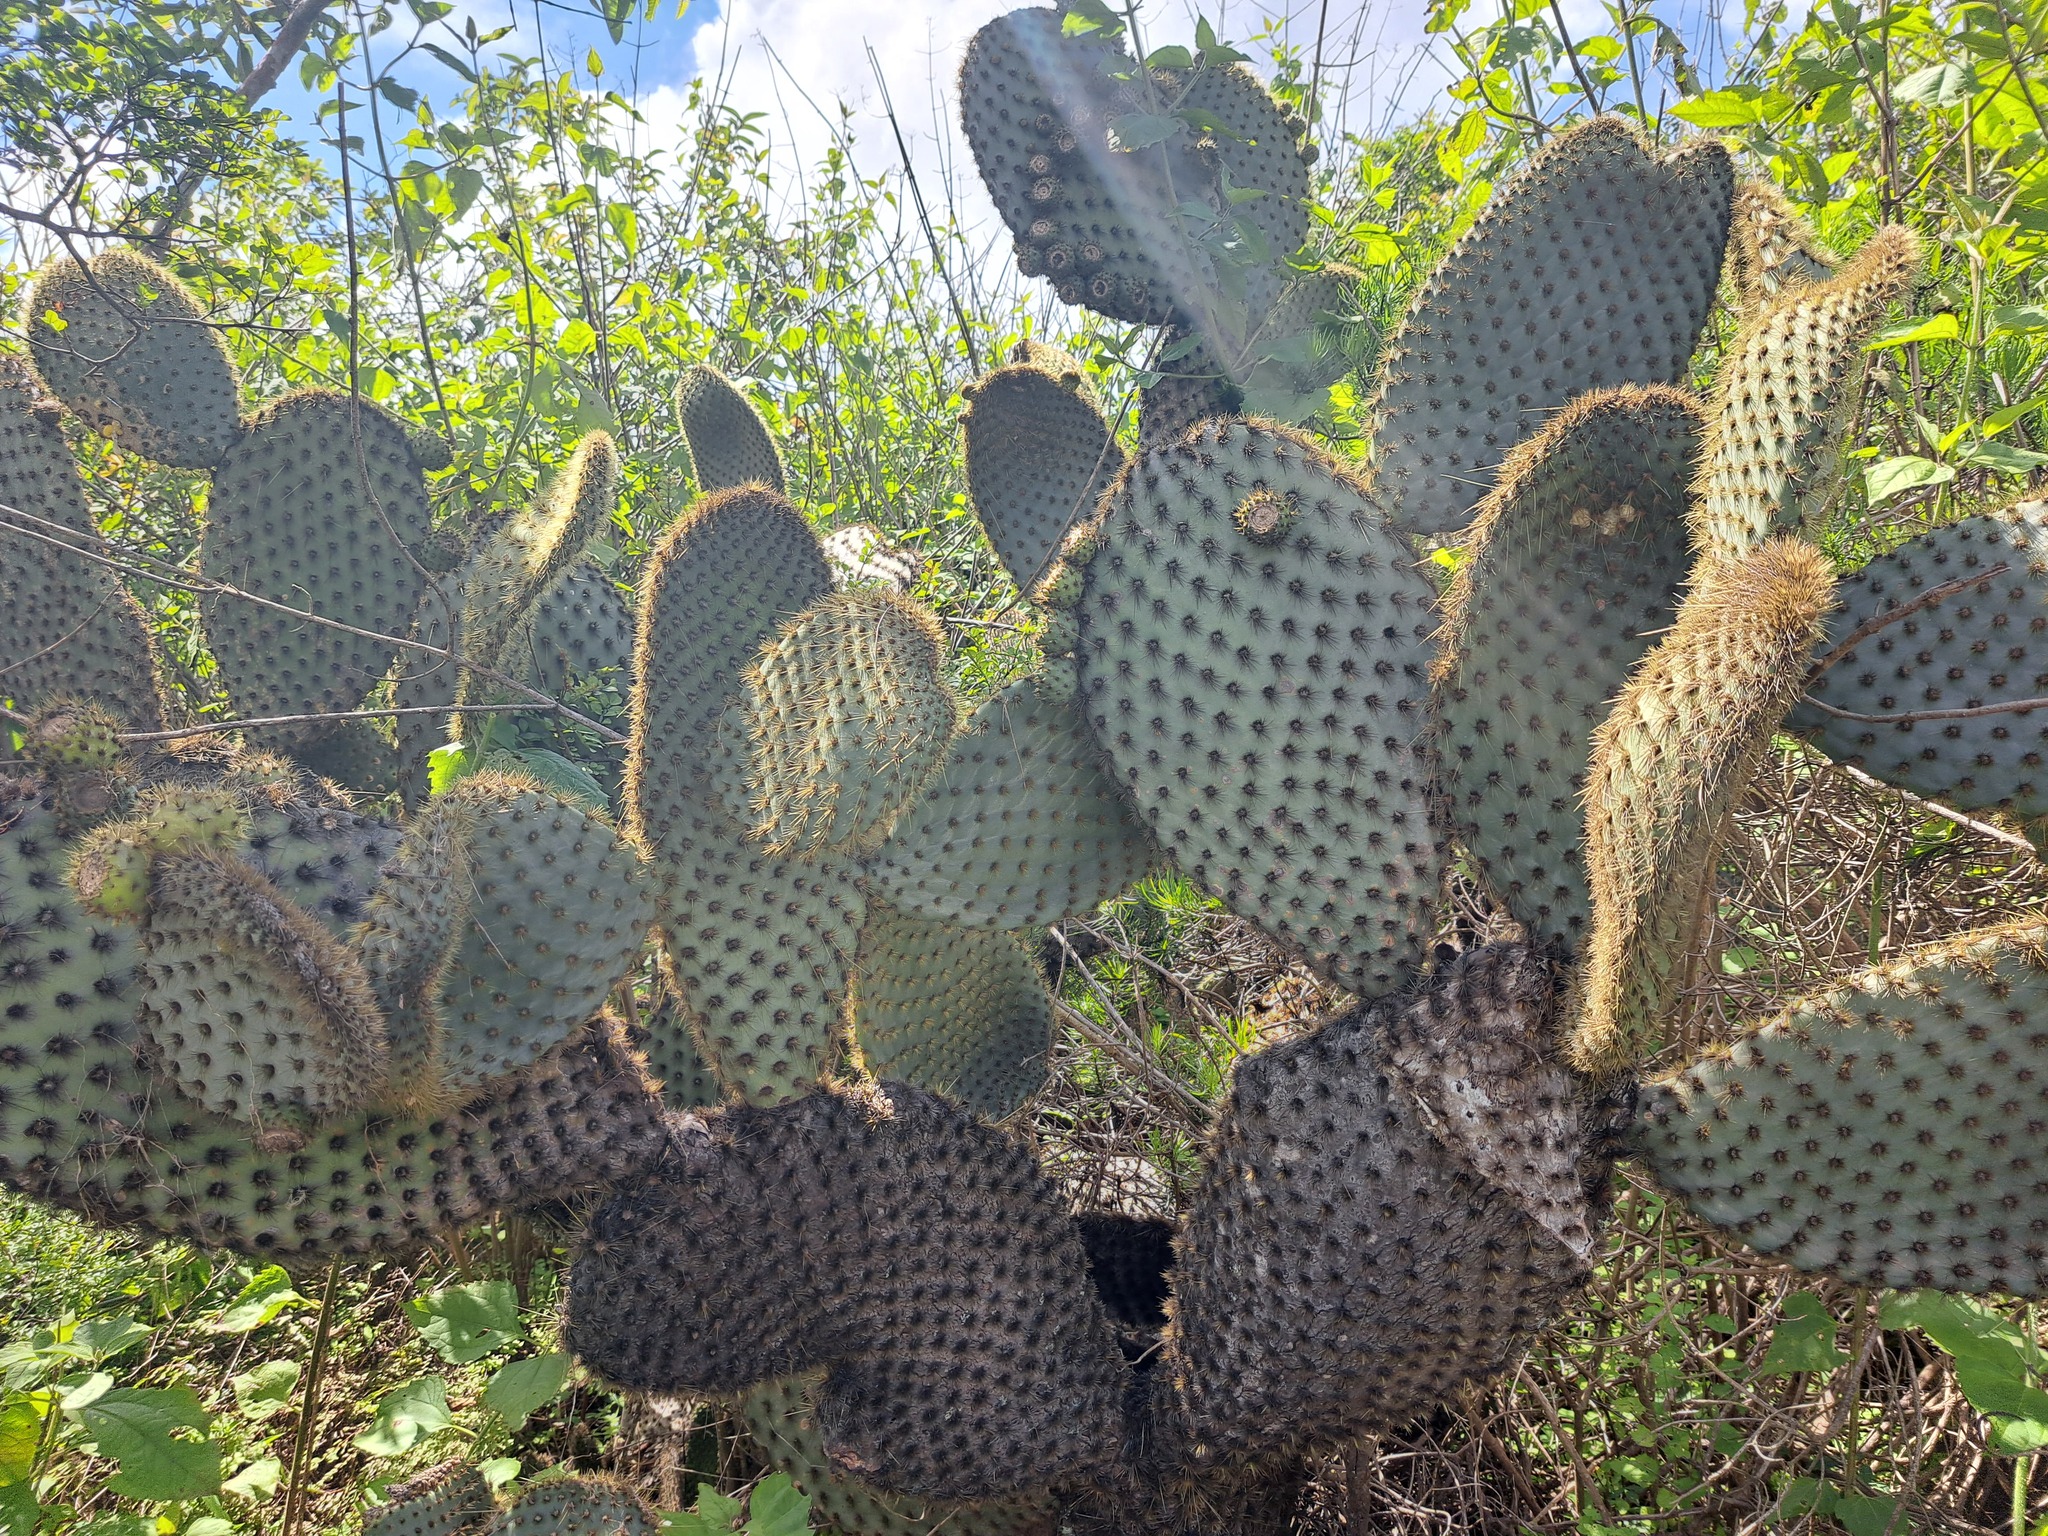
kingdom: Plantae
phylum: Tracheophyta
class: Magnoliopsida
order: Caryophyllales
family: Cactaceae
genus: Opuntia
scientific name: Opuntia galapageia
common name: Galápagos prickly pear
